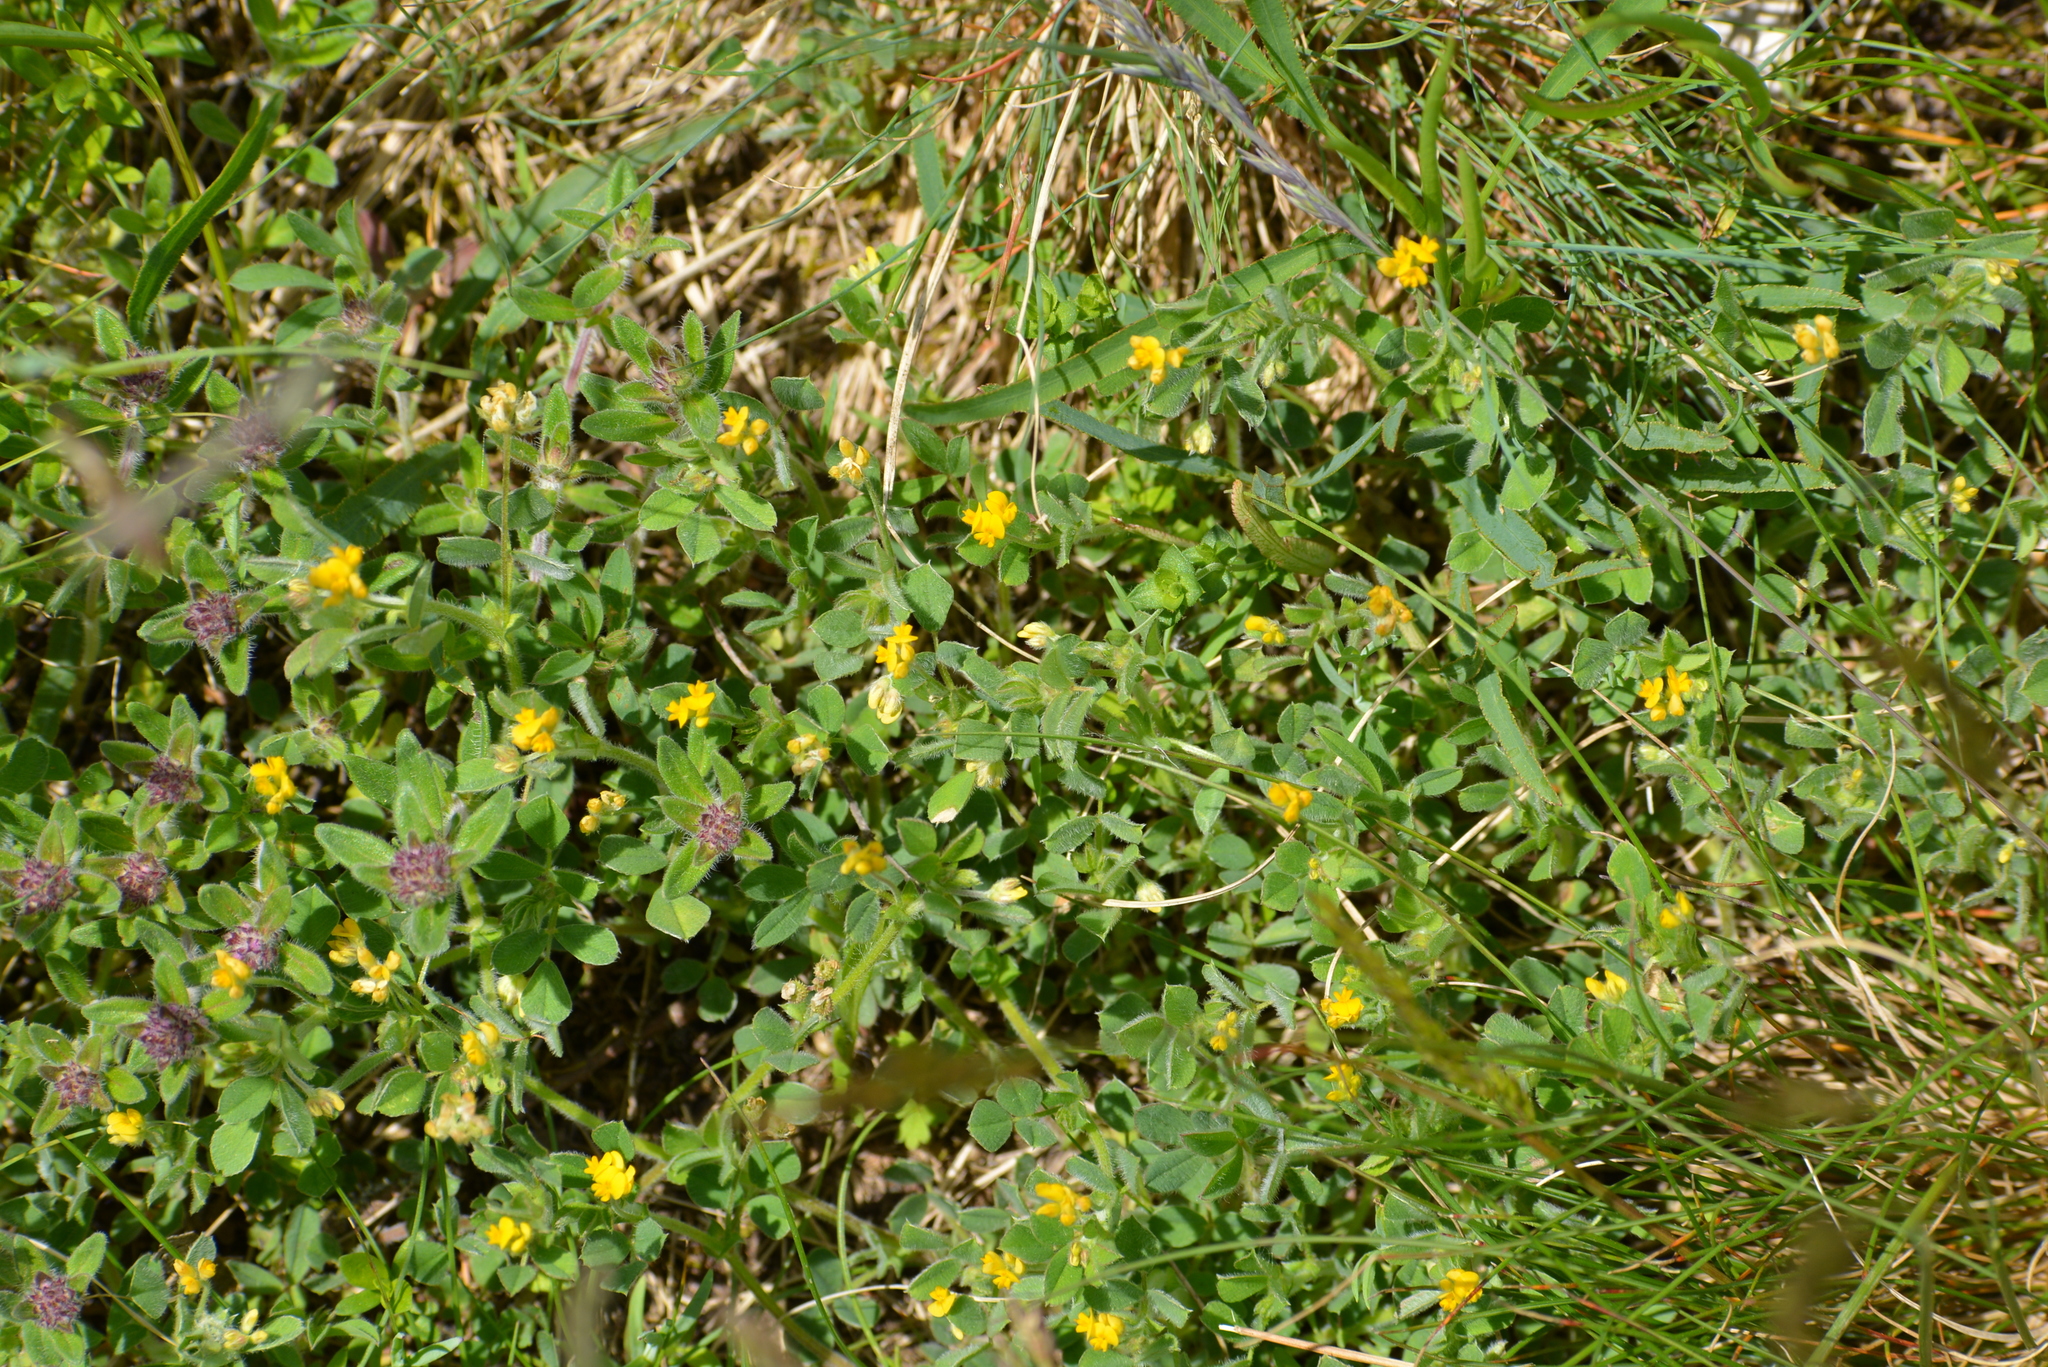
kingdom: Plantae
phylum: Tracheophyta
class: Magnoliopsida
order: Fabales
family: Fabaceae
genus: Medicago
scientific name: Medicago minima
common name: Little bur-clover
